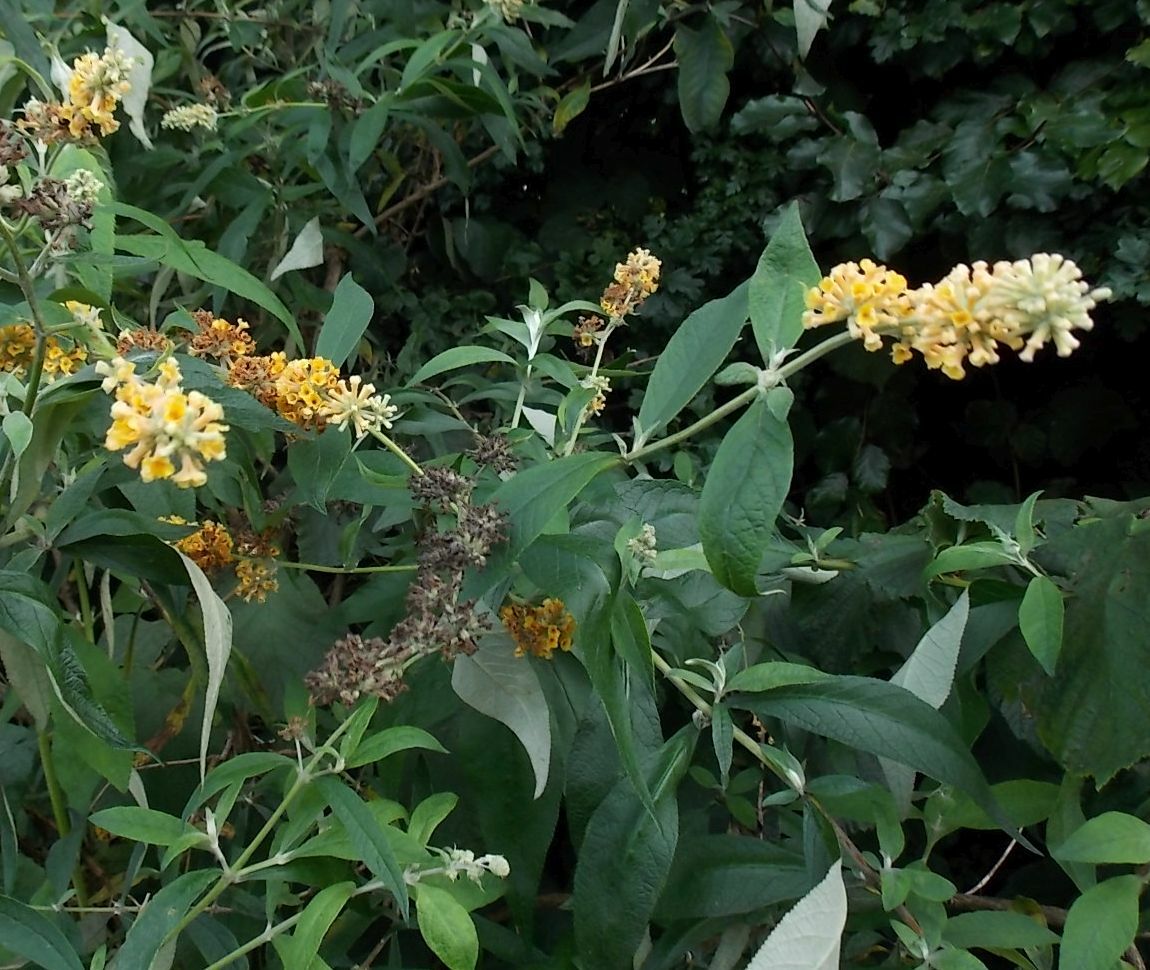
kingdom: Plantae
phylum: Tracheophyta
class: Magnoliopsida
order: Lamiales
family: Scrophulariaceae
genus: Buddleja
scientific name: Buddleja weyeriana
